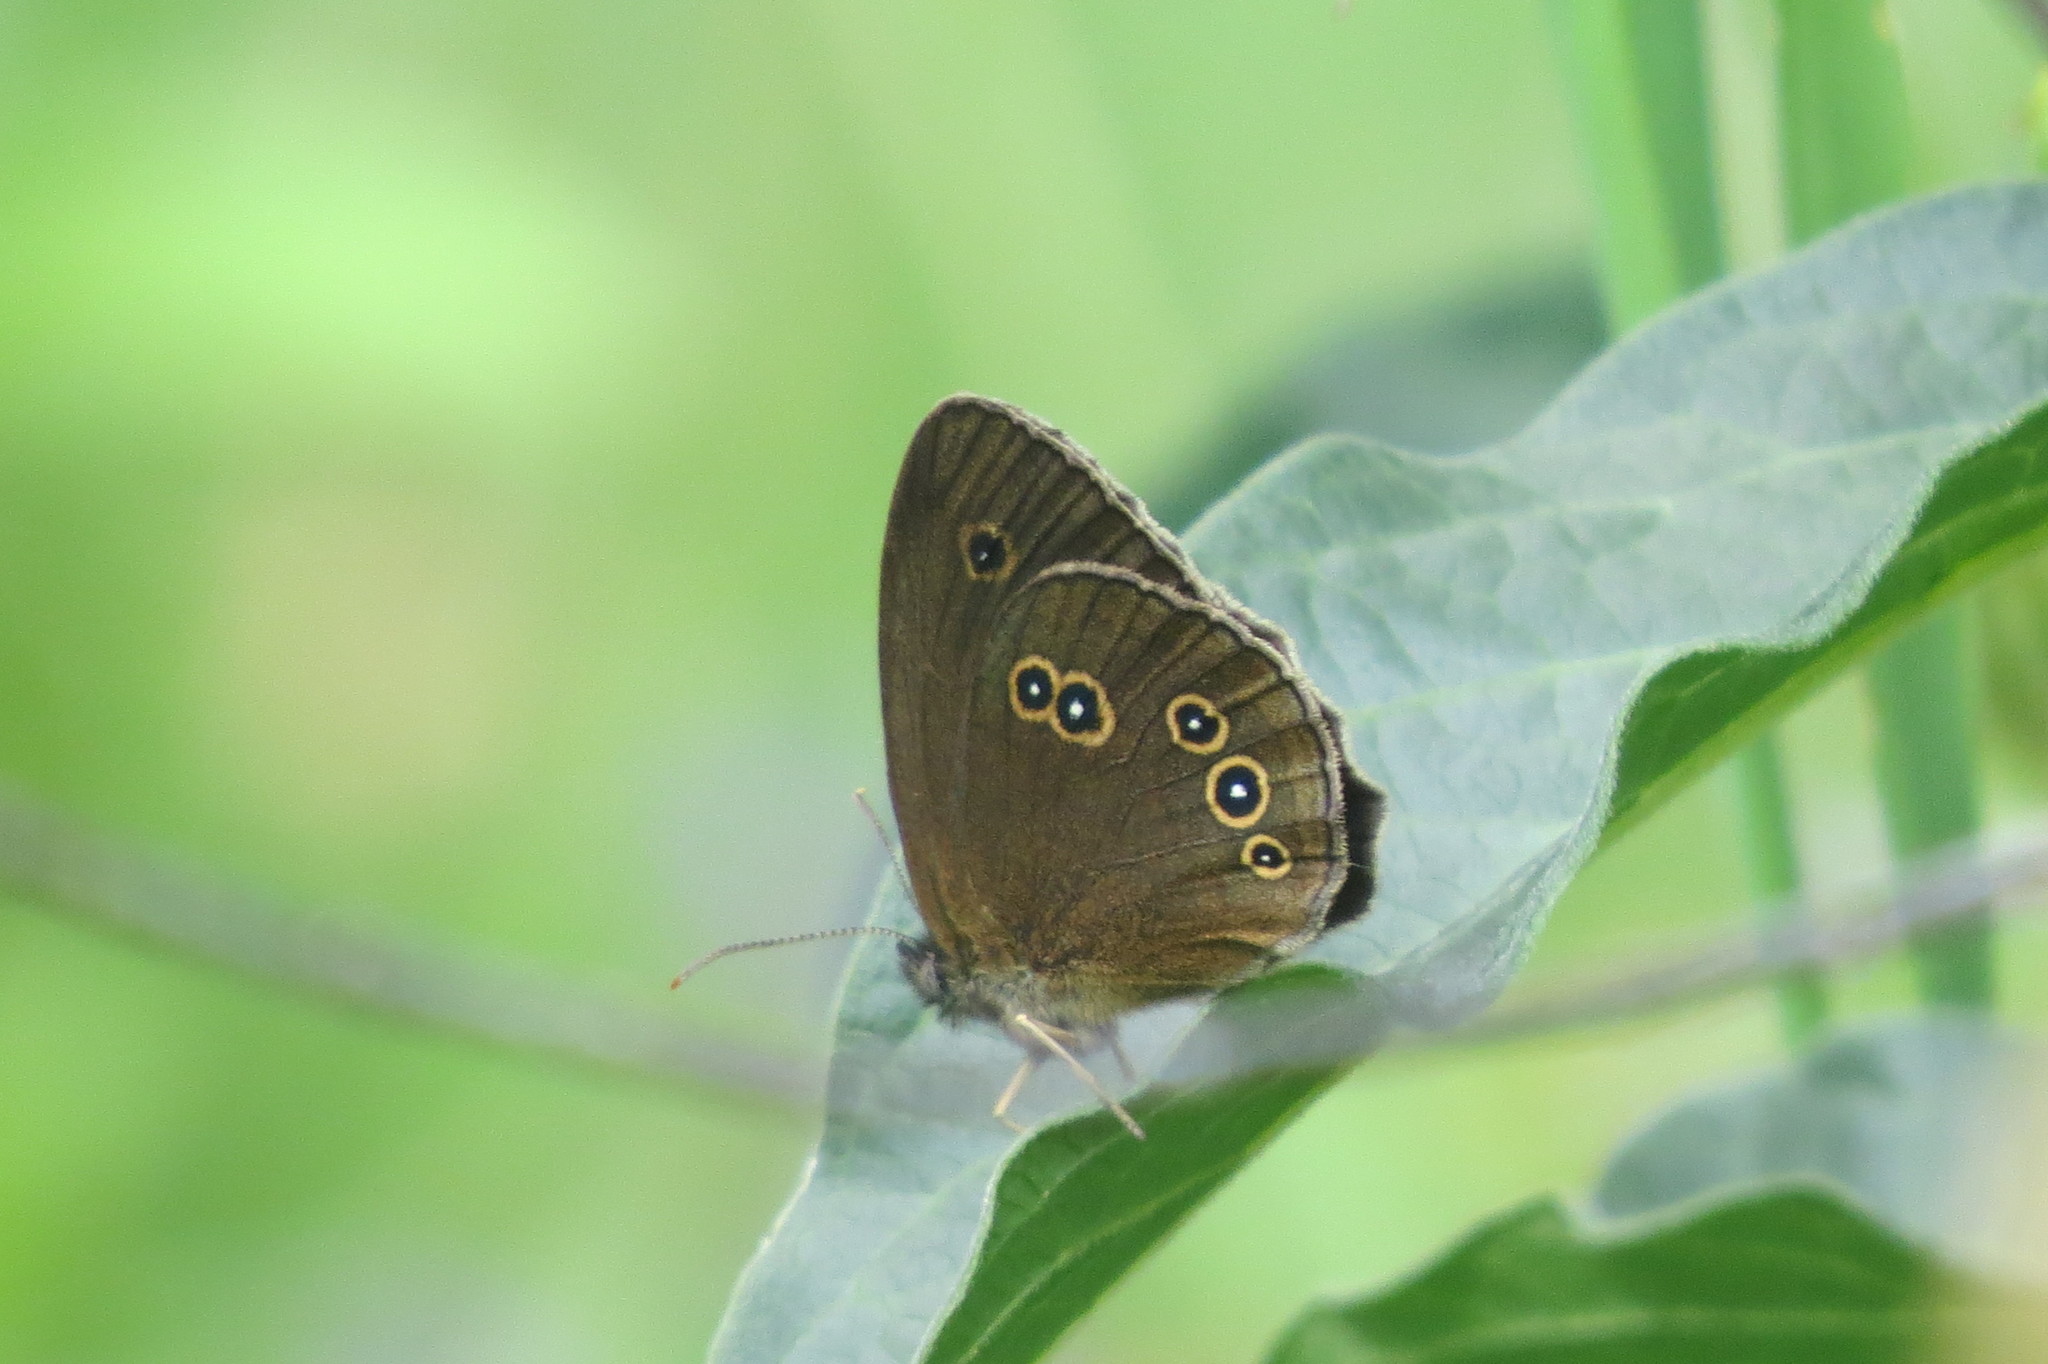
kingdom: Animalia
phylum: Arthropoda
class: Insecta
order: Lepidoptera
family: Nymphalidae
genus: Aphantopus
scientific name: Aphantopus hyperantus
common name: Ringlet
